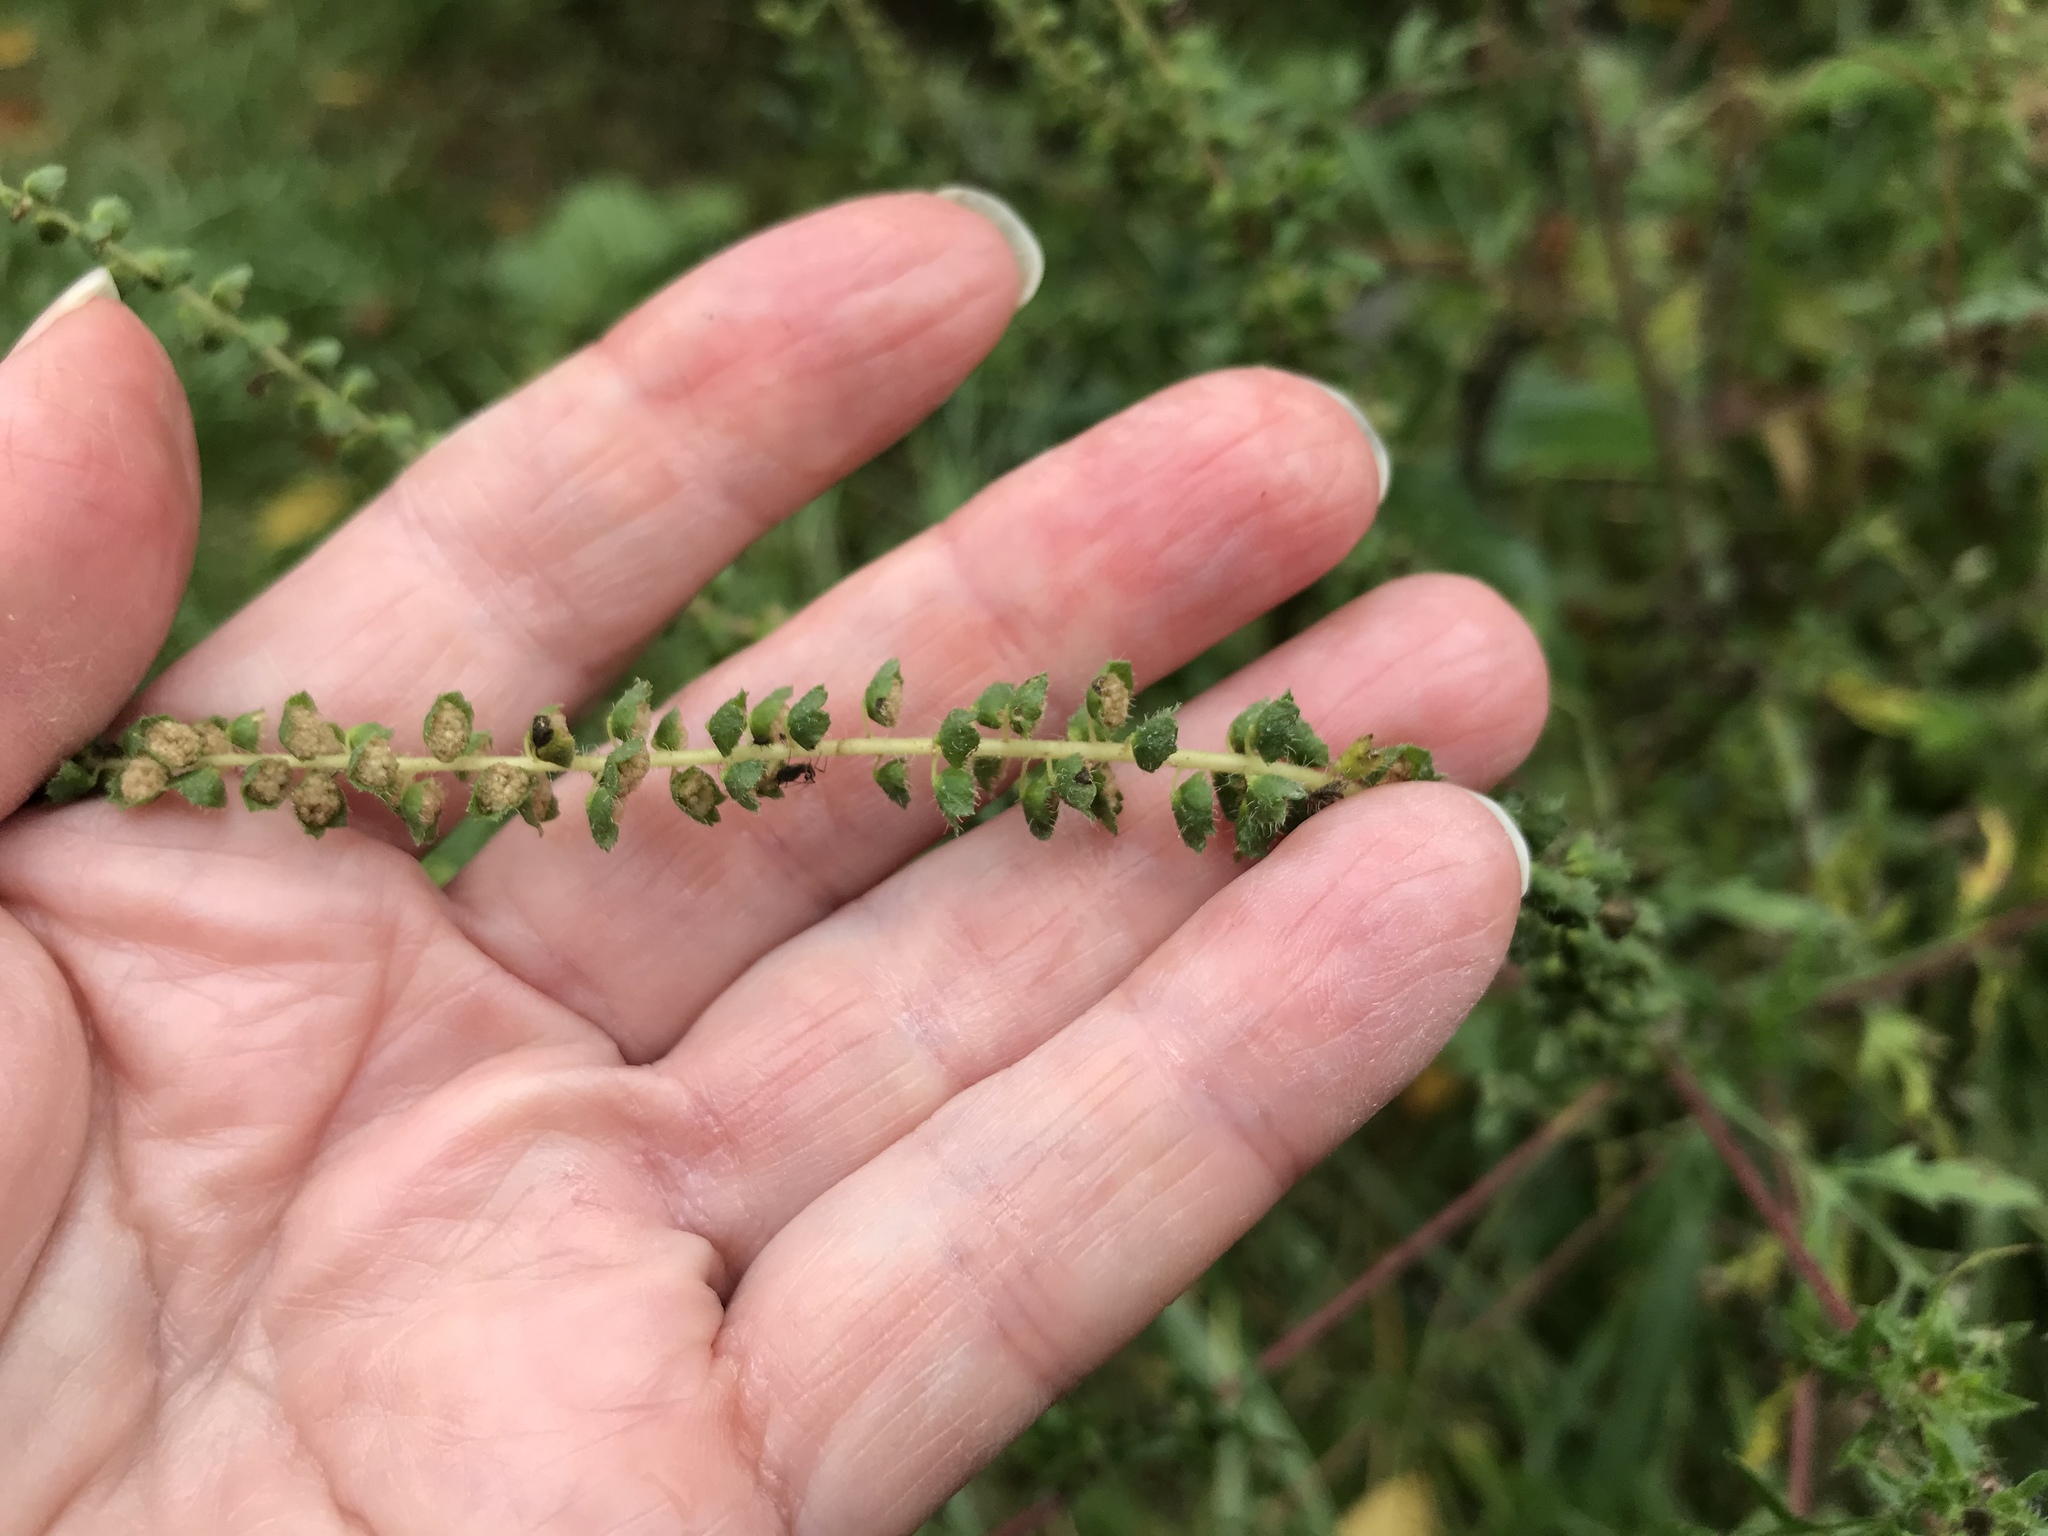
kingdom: Plantae
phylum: Tracheophyta
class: Magnoliopsida
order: Asterales
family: Asteraceae
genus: Ambrosia
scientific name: Ambrosia artemisiifolia
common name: Annual ragweed
